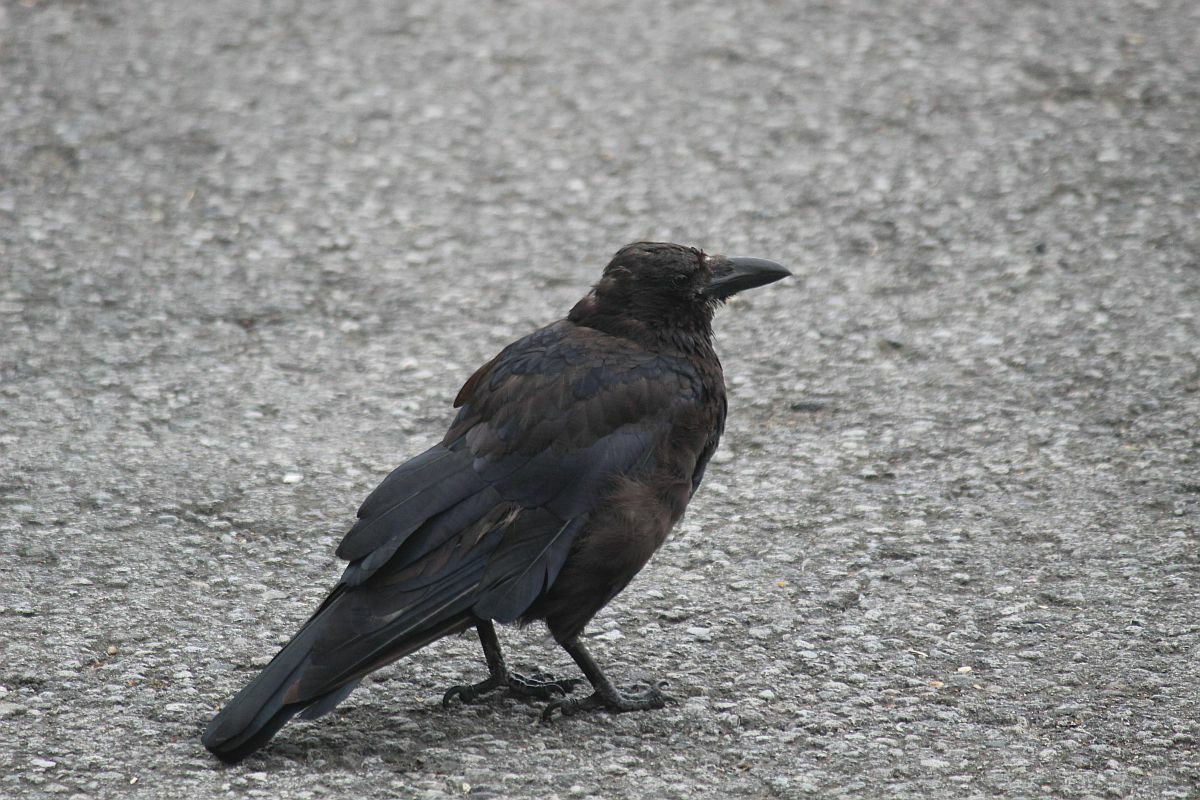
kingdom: Animalia
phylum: Chordata
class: Aves
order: Passeriformes
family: Corvidae
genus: Corvus
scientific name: Corvus corone
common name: Carrion crow
